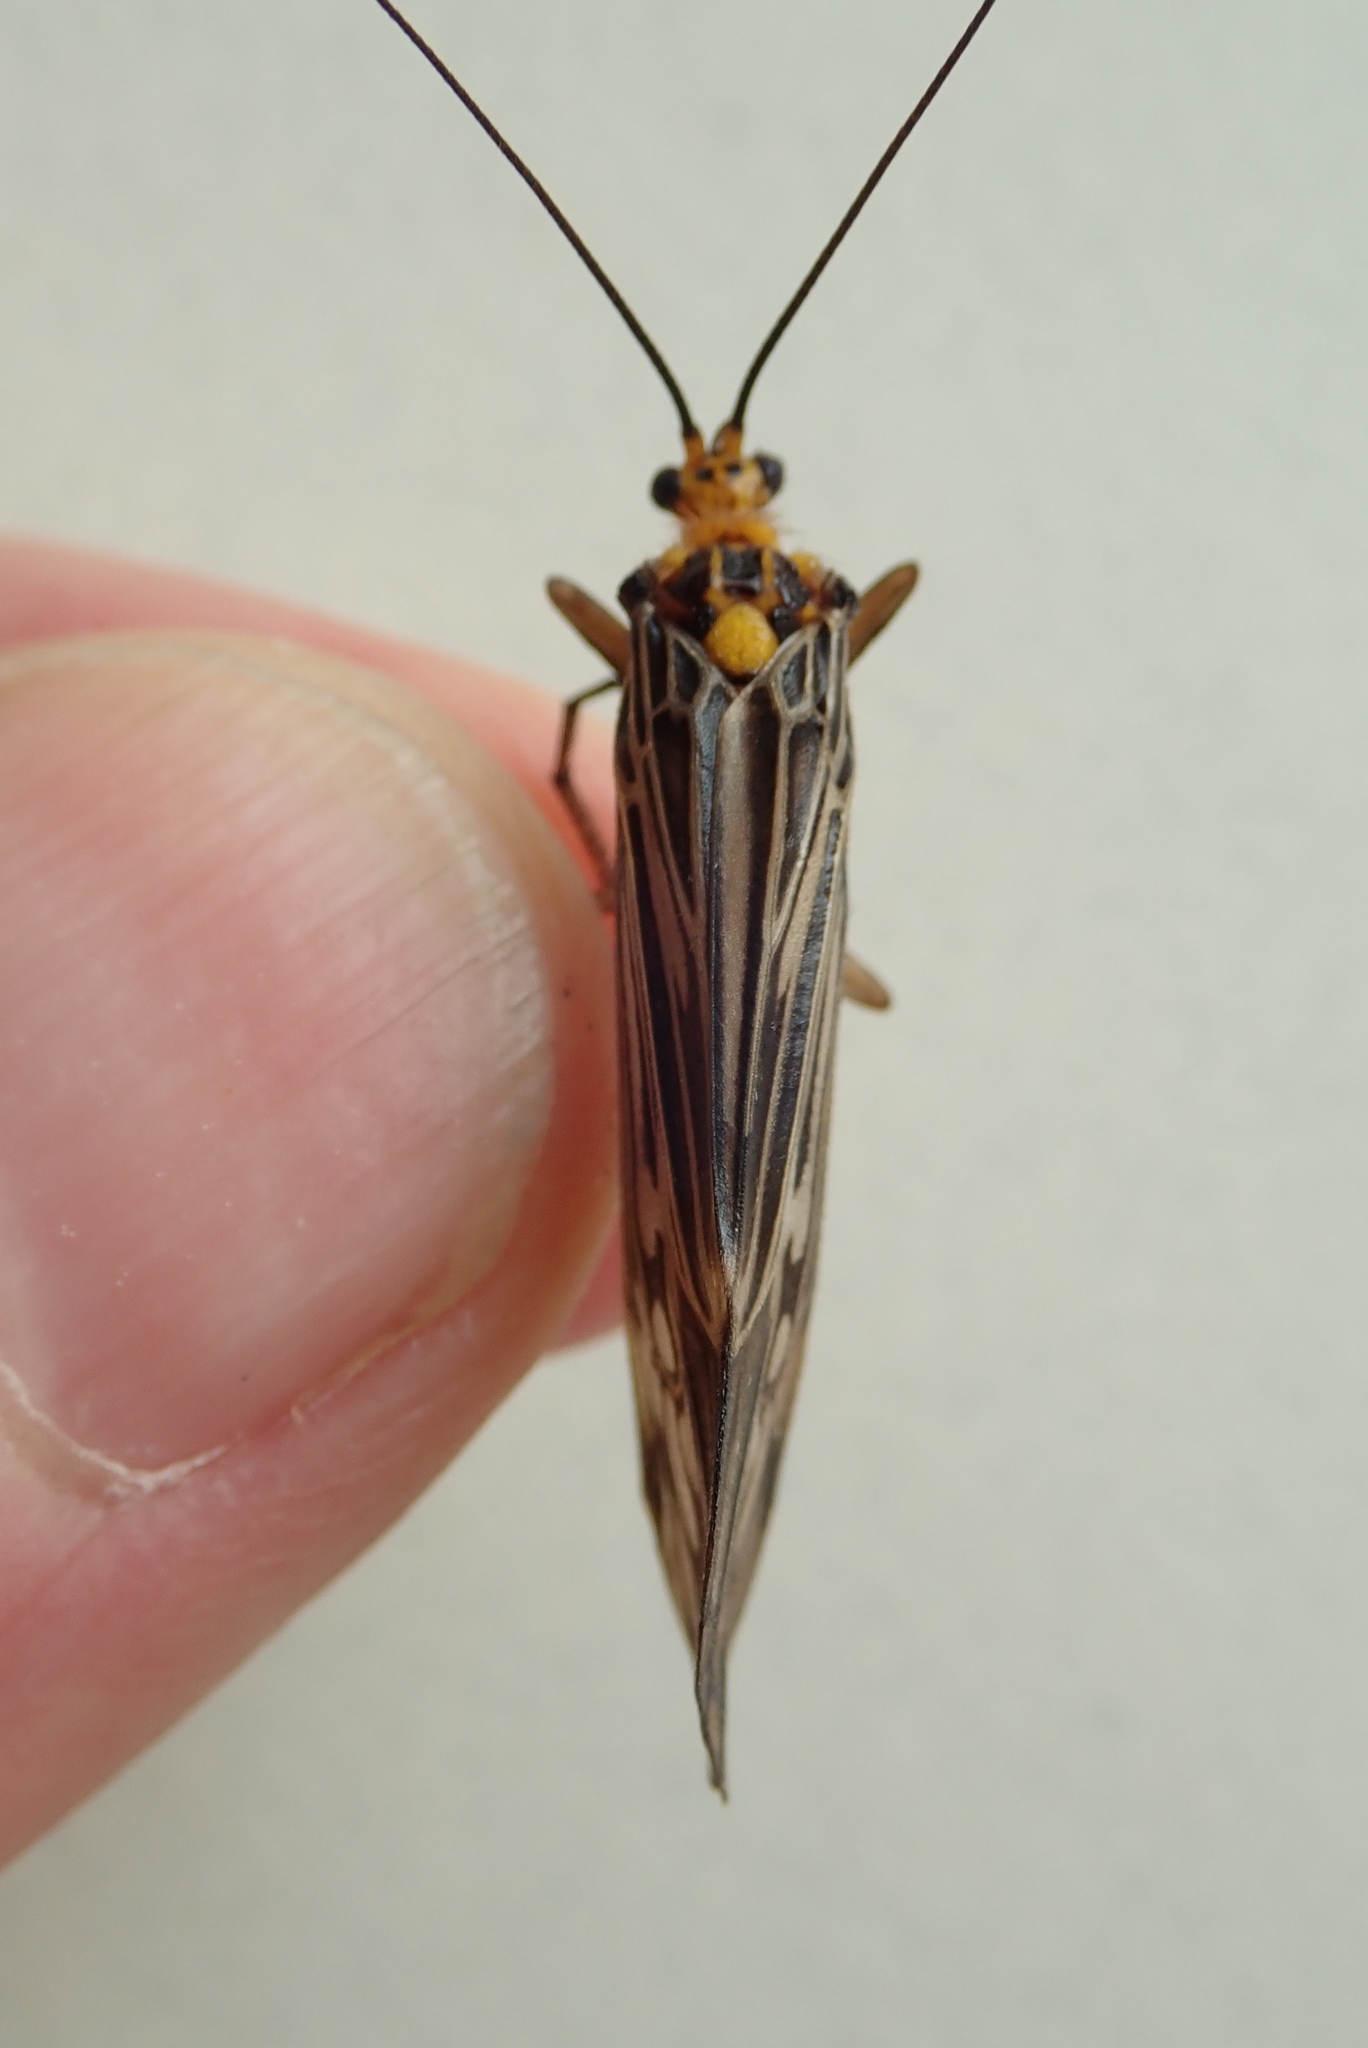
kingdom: Animalia
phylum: Arthropoda
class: Insecta
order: Trichoptera
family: Limnephilidae
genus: Hydatophylax
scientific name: Hydatophylax argus
